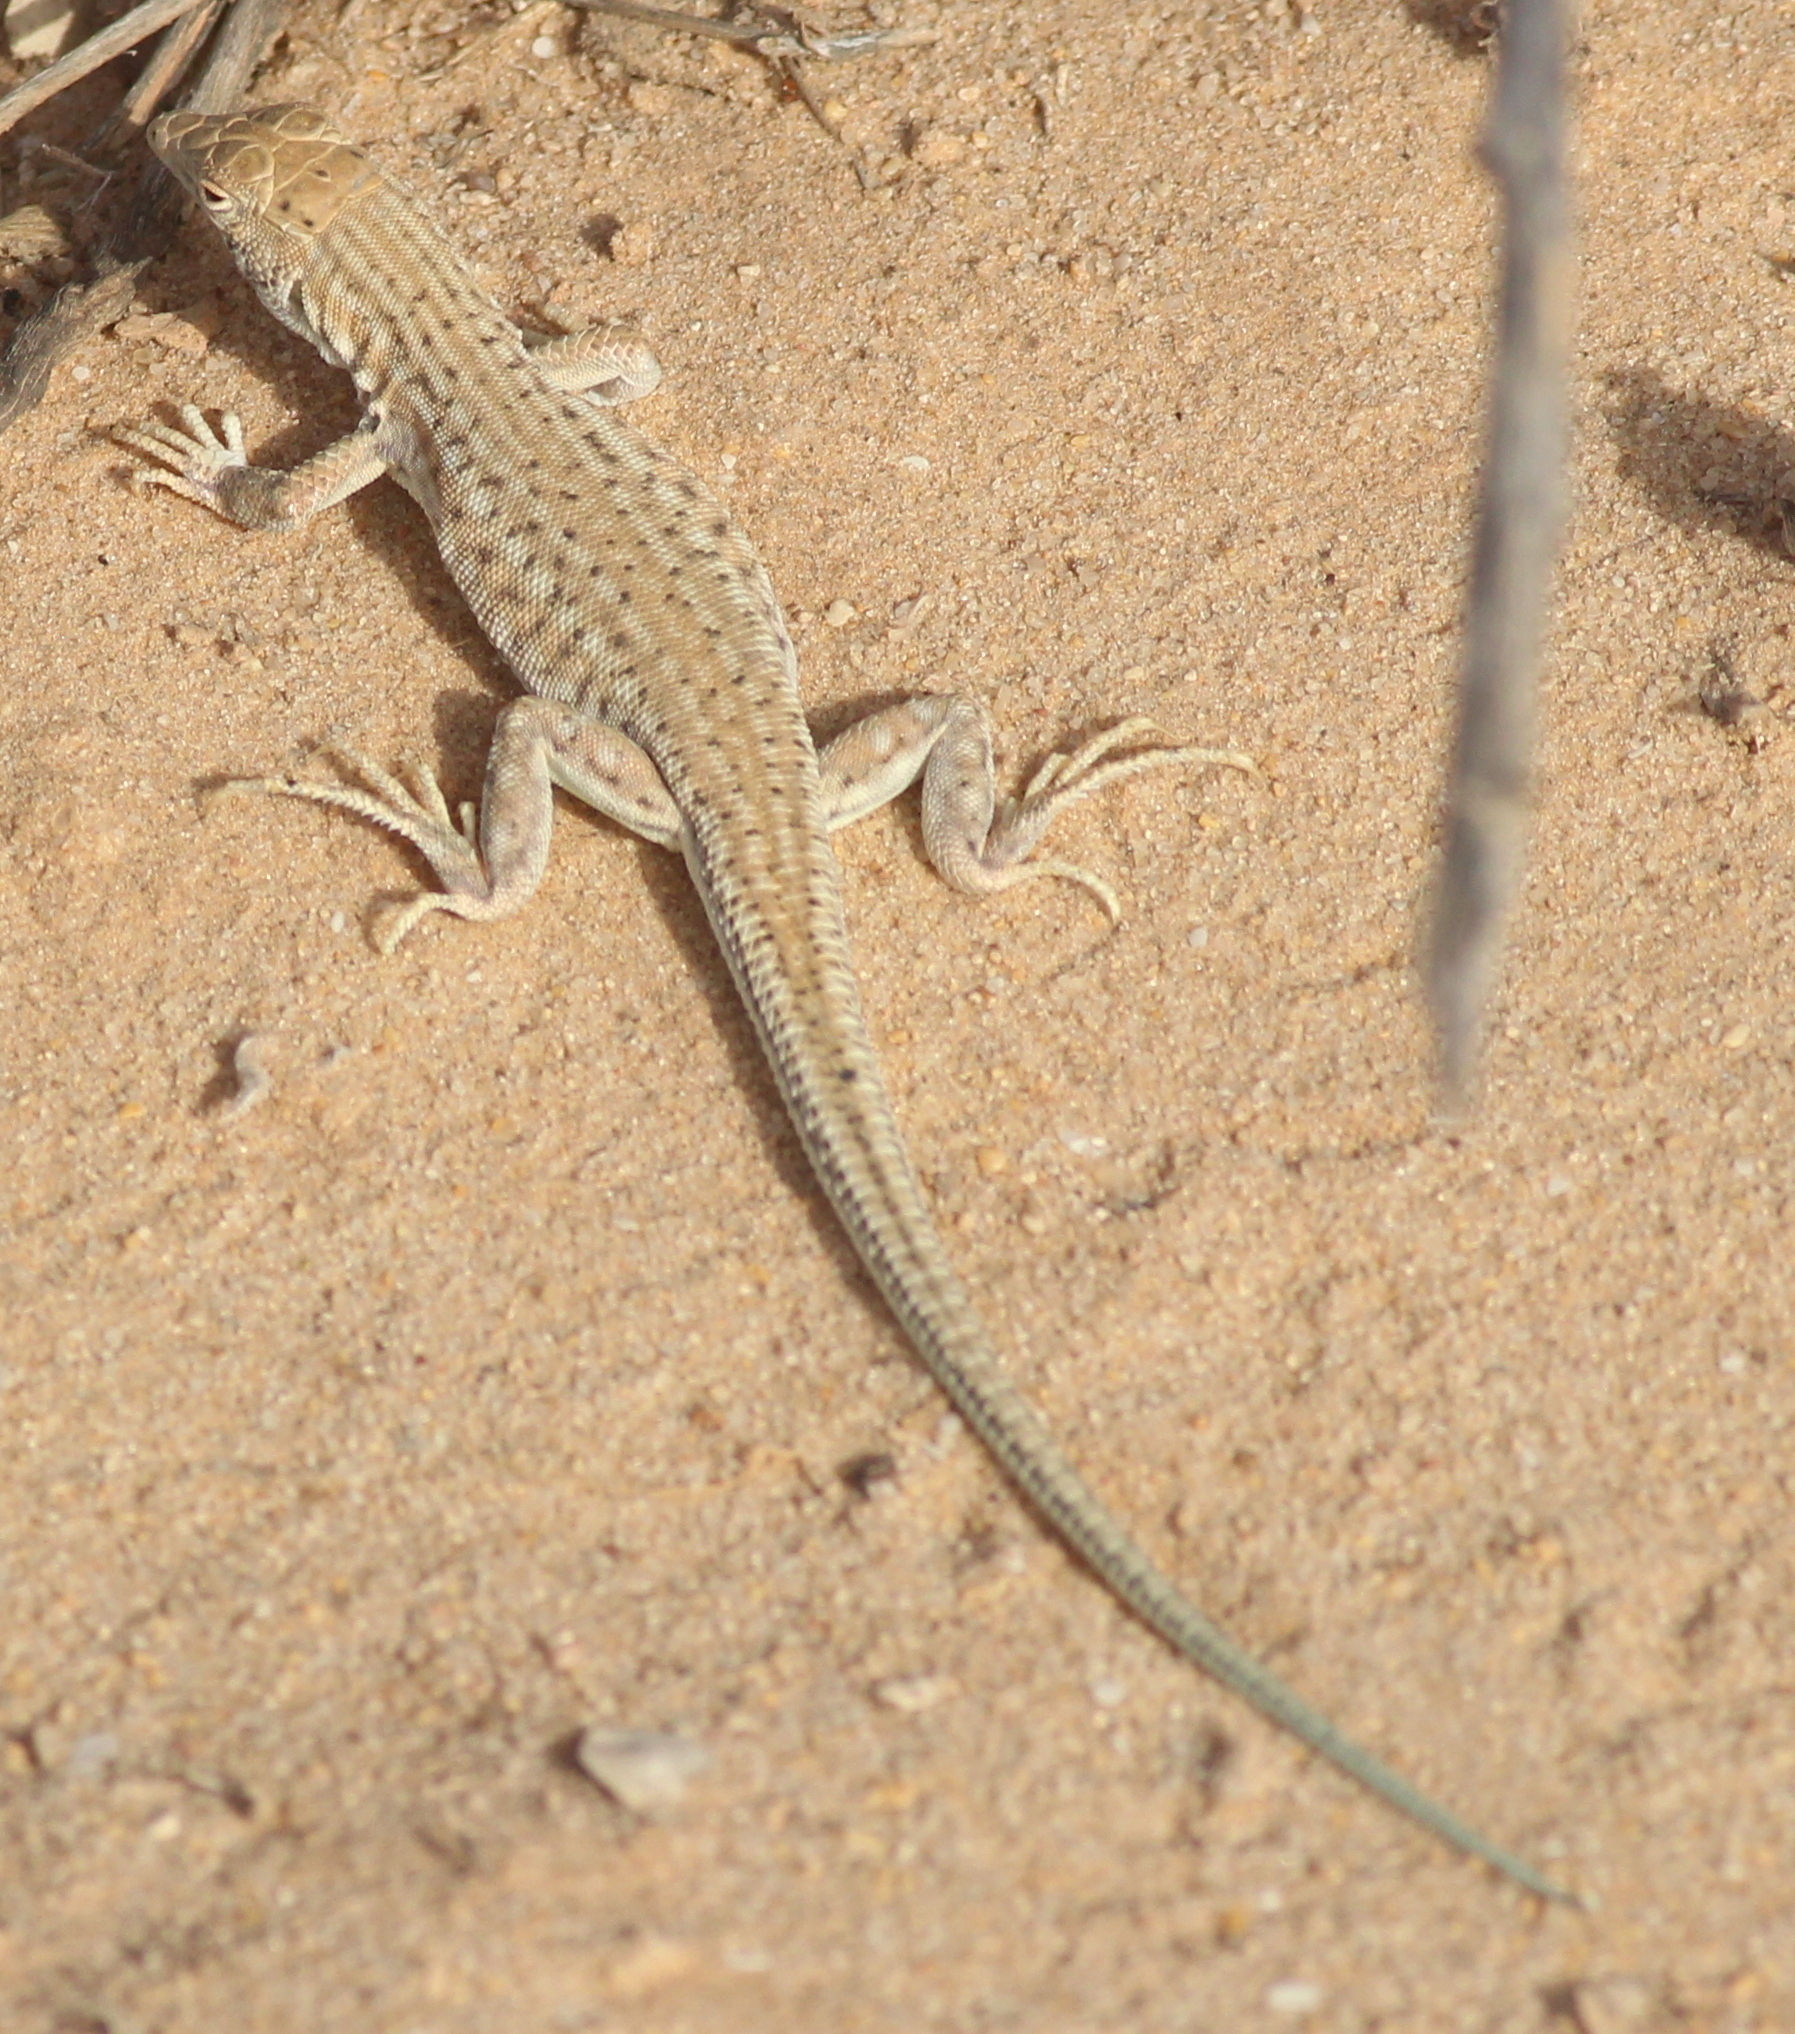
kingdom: Animalia
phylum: Chordata
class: Squamata
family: Lacertidae
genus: Acanthodactylus
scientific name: Acanthodactylus aureus
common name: Golden fringe-fingered lizard
